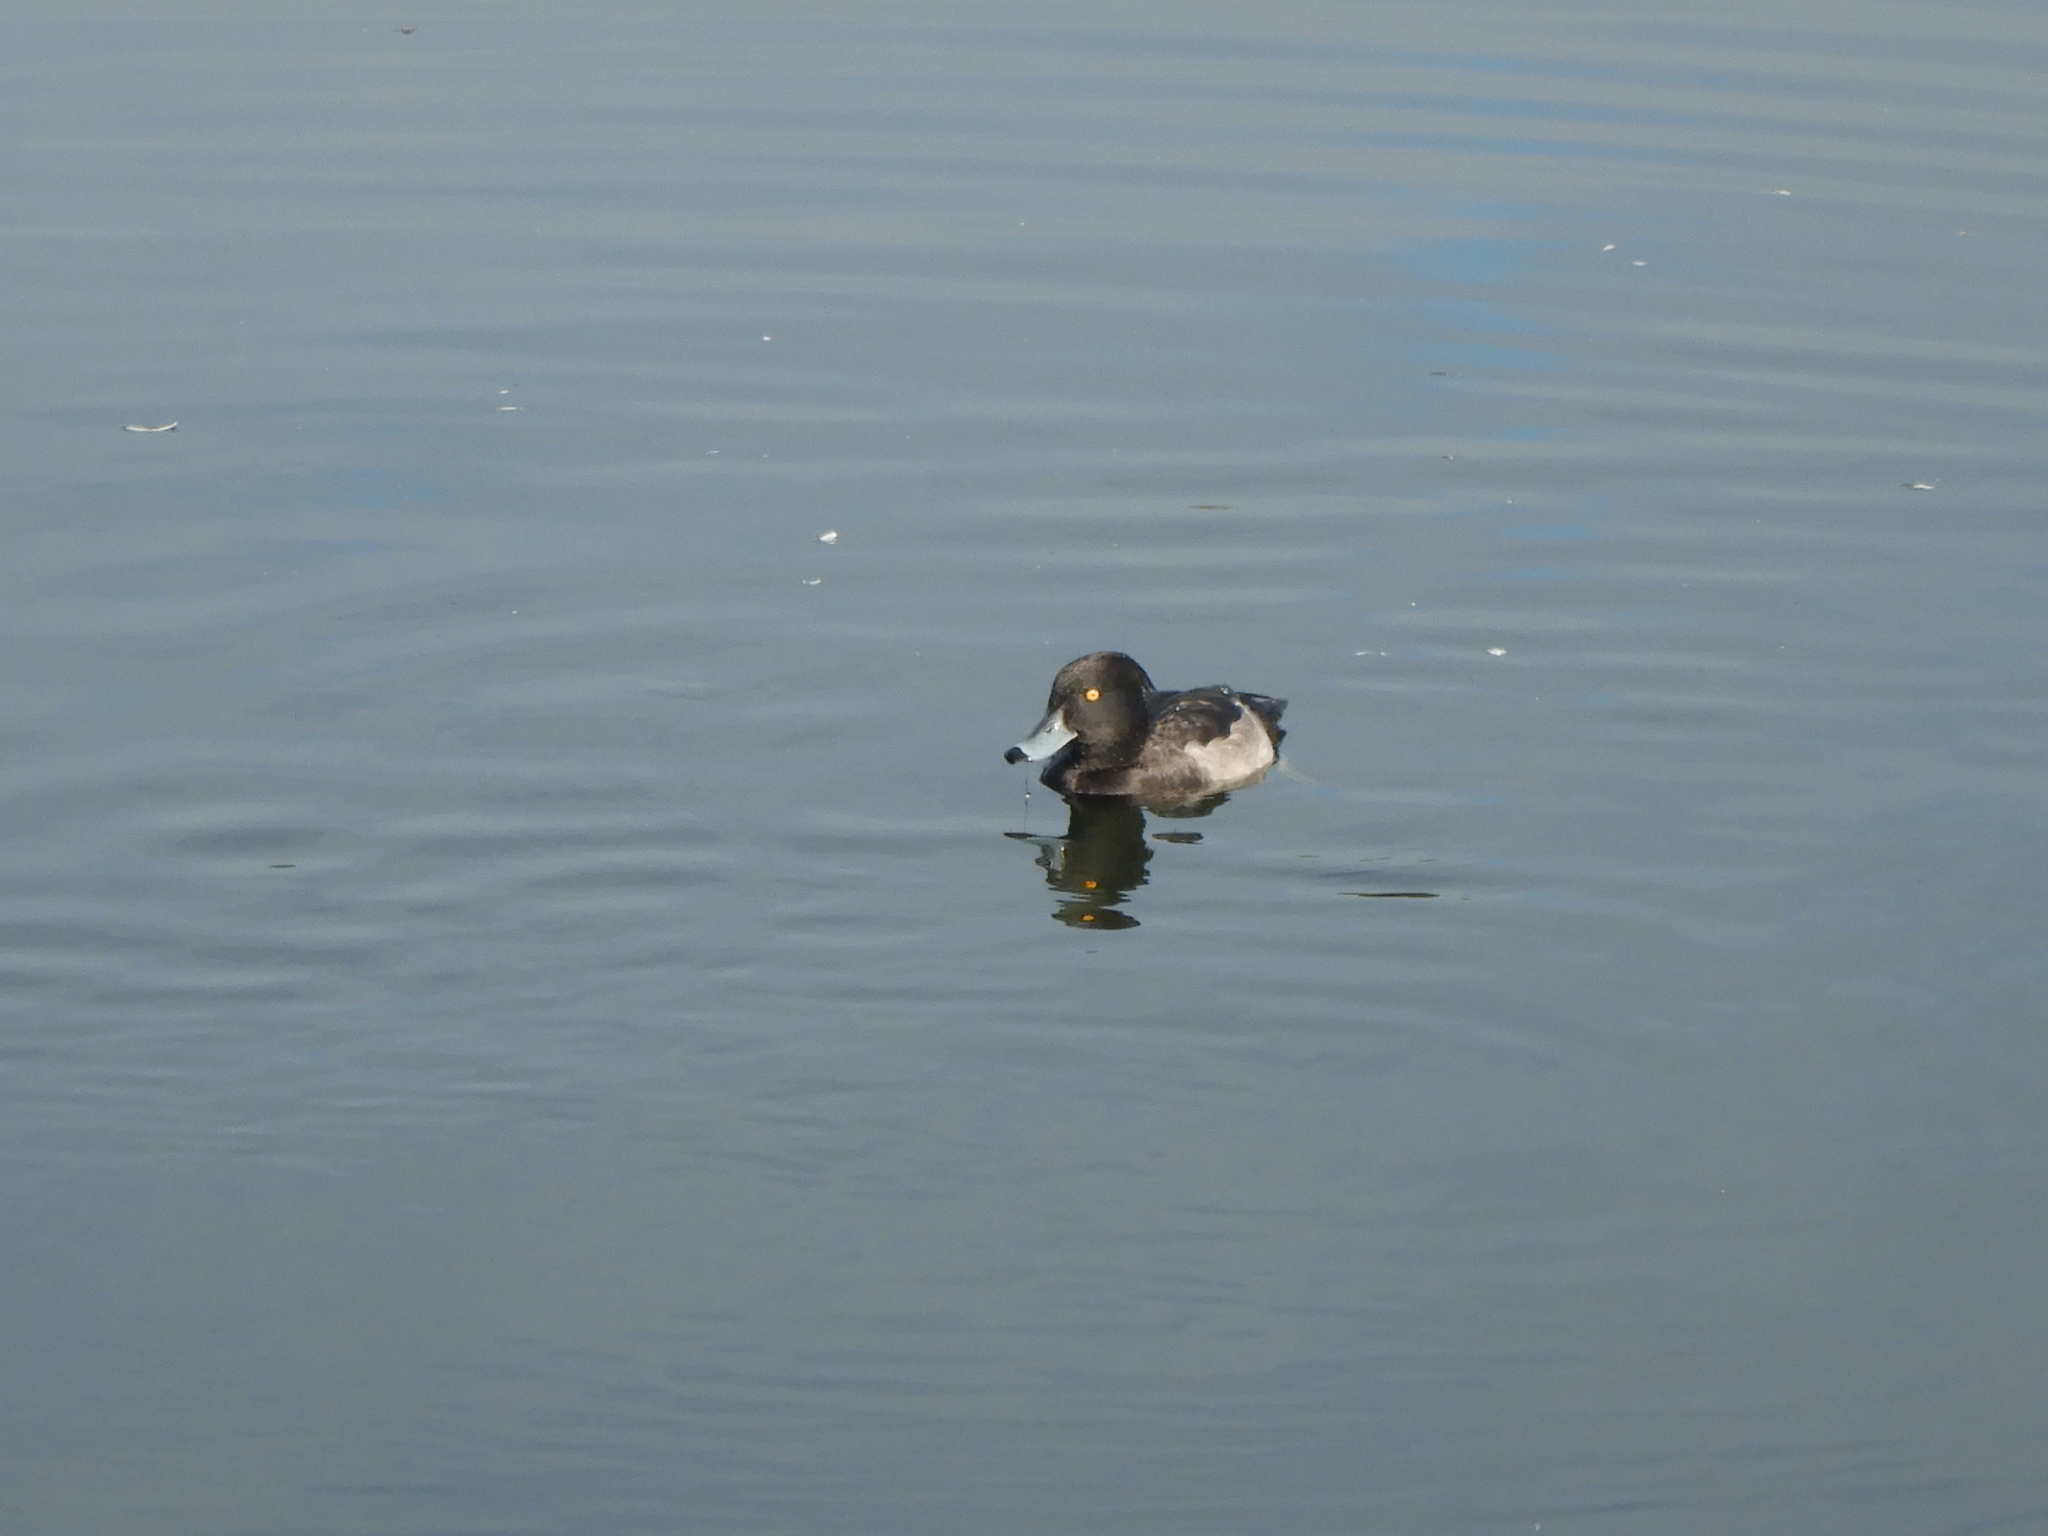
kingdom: Animalia
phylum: Chordata
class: Aves
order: Anseriformes
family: Anatidae
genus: Aythya
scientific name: Aythya fuligula
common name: Tufted duck
